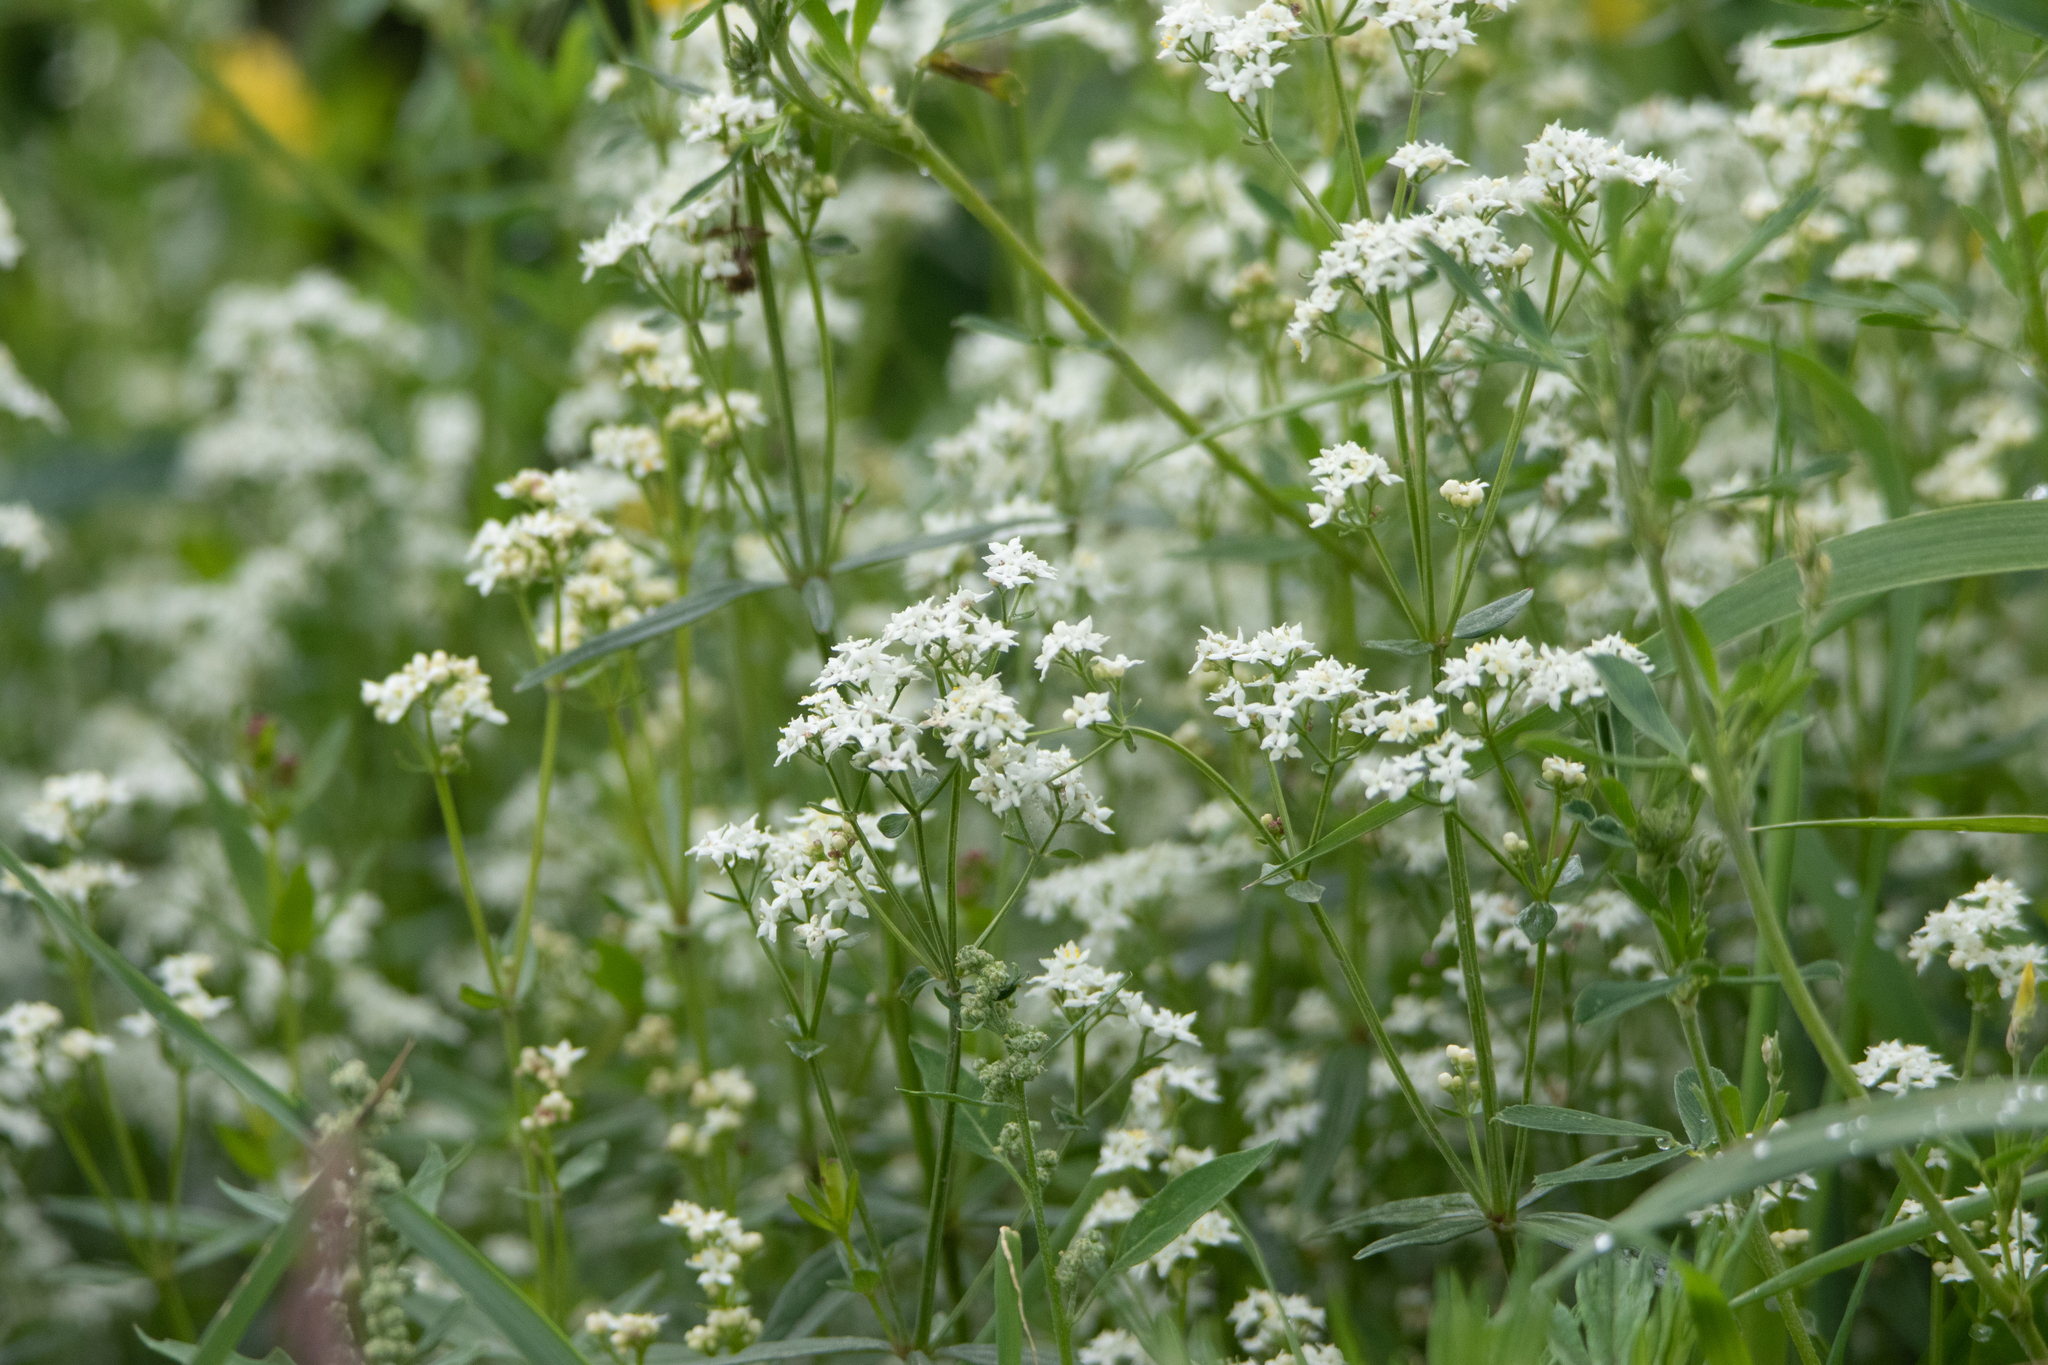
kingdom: Plantae
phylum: Tracheophyta
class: Magnoliopsida
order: Gentianales
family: Rubiaceae
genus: Galium
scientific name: Galium boreale
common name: Northern bedstraw
